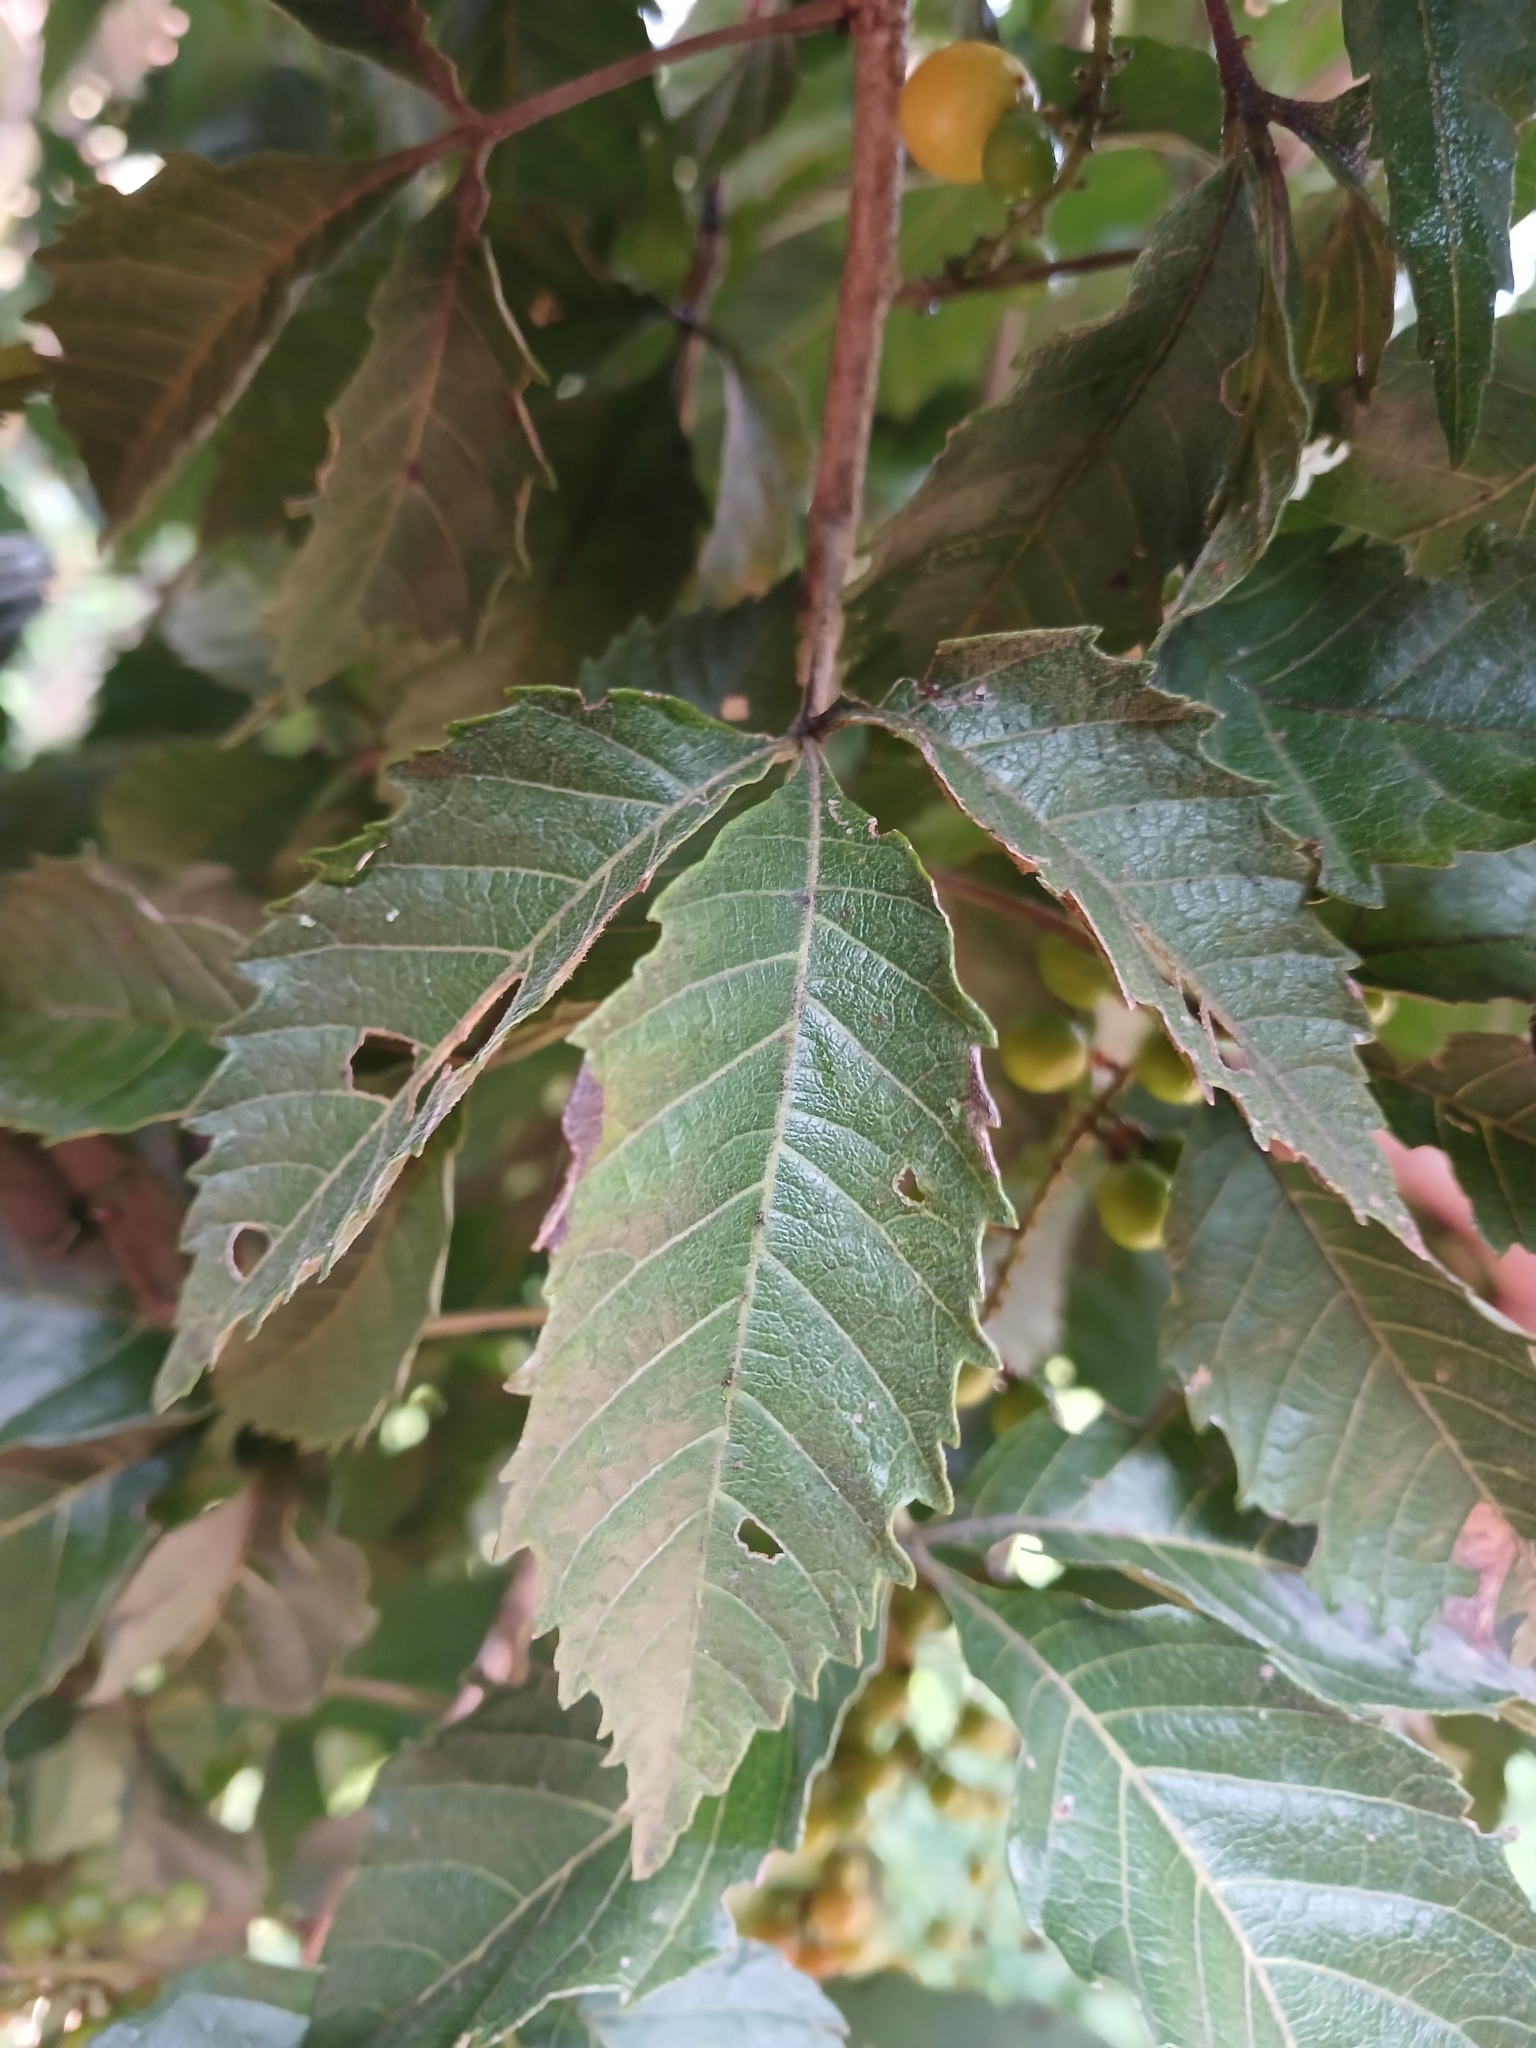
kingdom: Plantae
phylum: Tracheophyta
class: Magnoliopsida
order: Sapindales
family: Sapindaceae
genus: Allophylus
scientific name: Allophylus africanus
